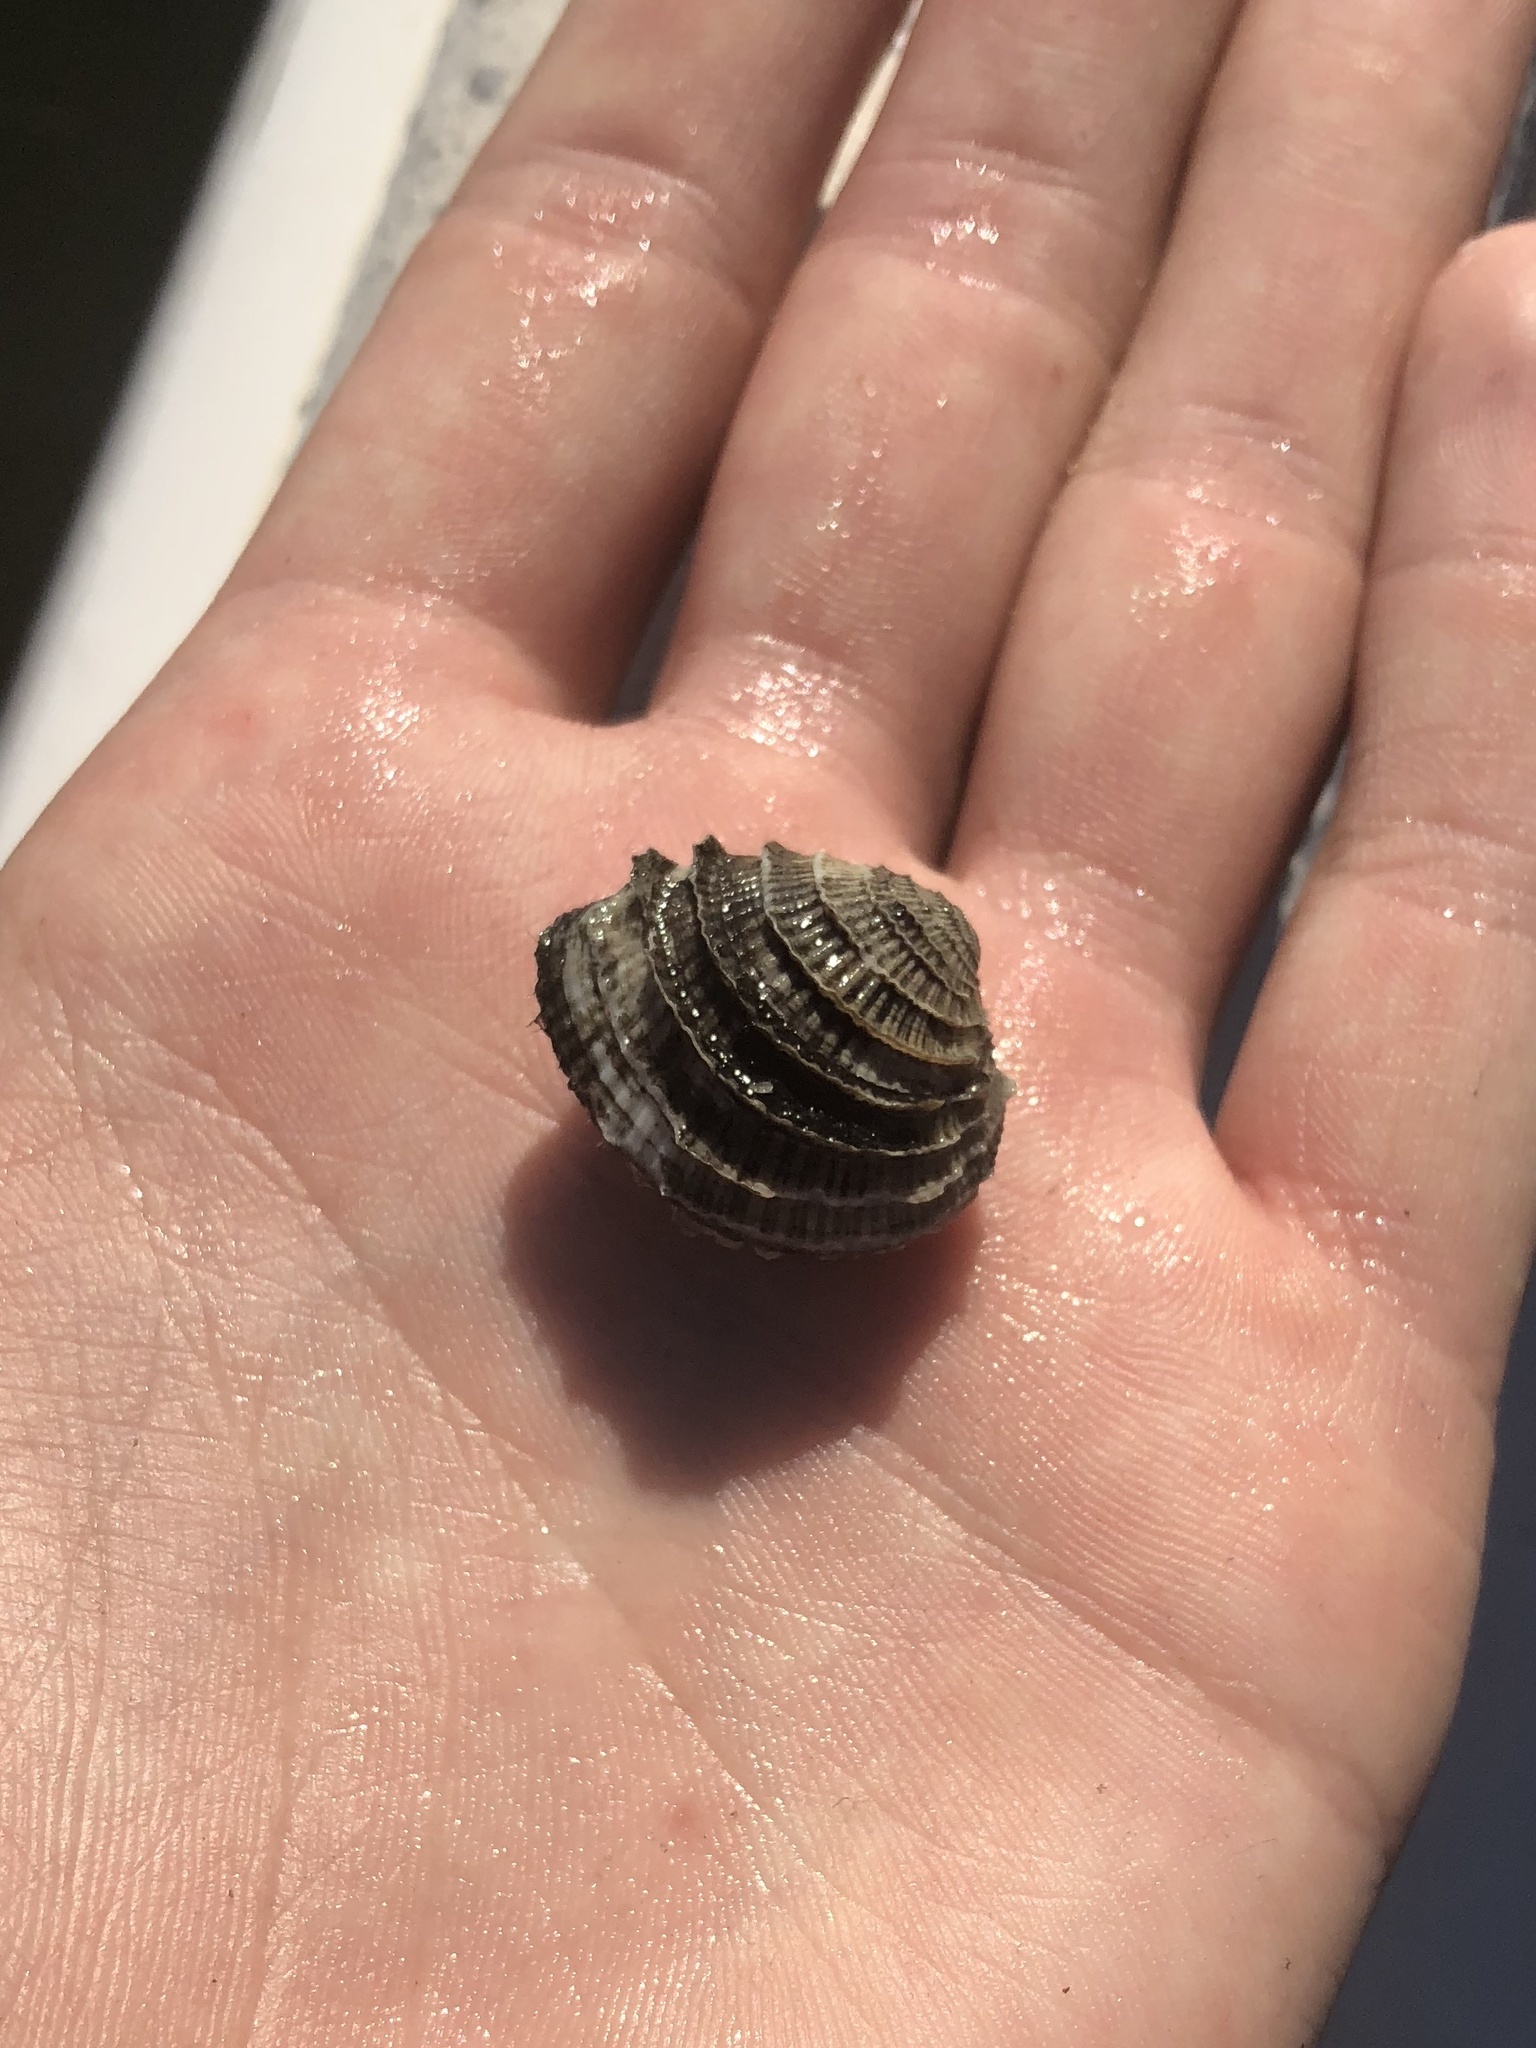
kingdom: Animalia
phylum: Mollusca
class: Bivalvia
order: Venerida
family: Veneridae
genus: Chione
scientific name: Chione elevata
